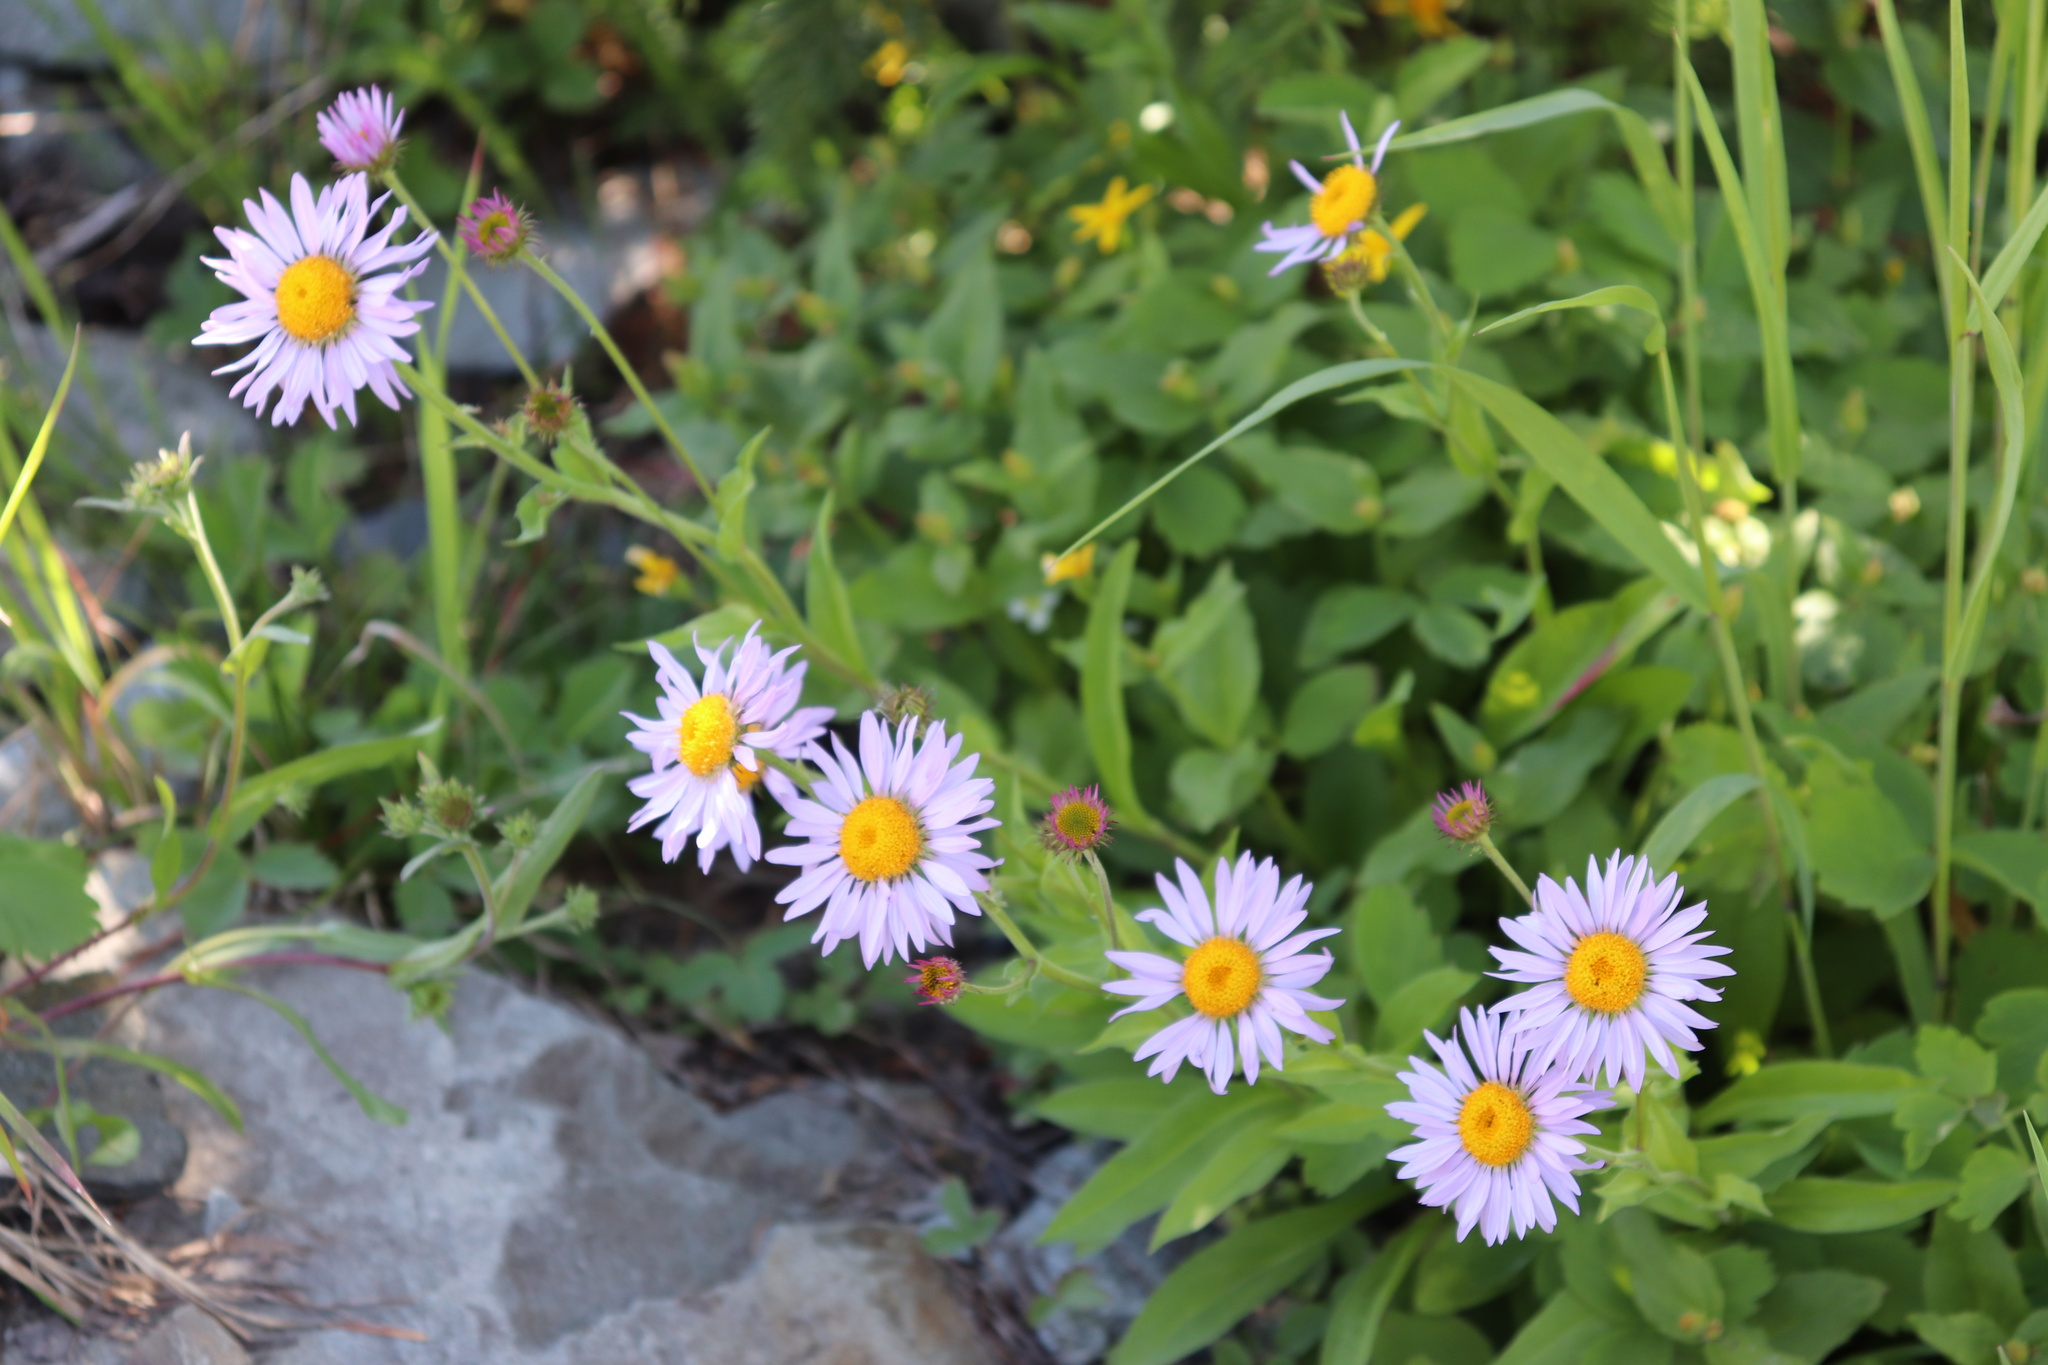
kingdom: Plantae
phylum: Tracheophyta
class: Magnoliopsida
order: Asterales
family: Asteraceae
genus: Erigeron
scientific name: Erigeron glacialis
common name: Subalpine fleabane
